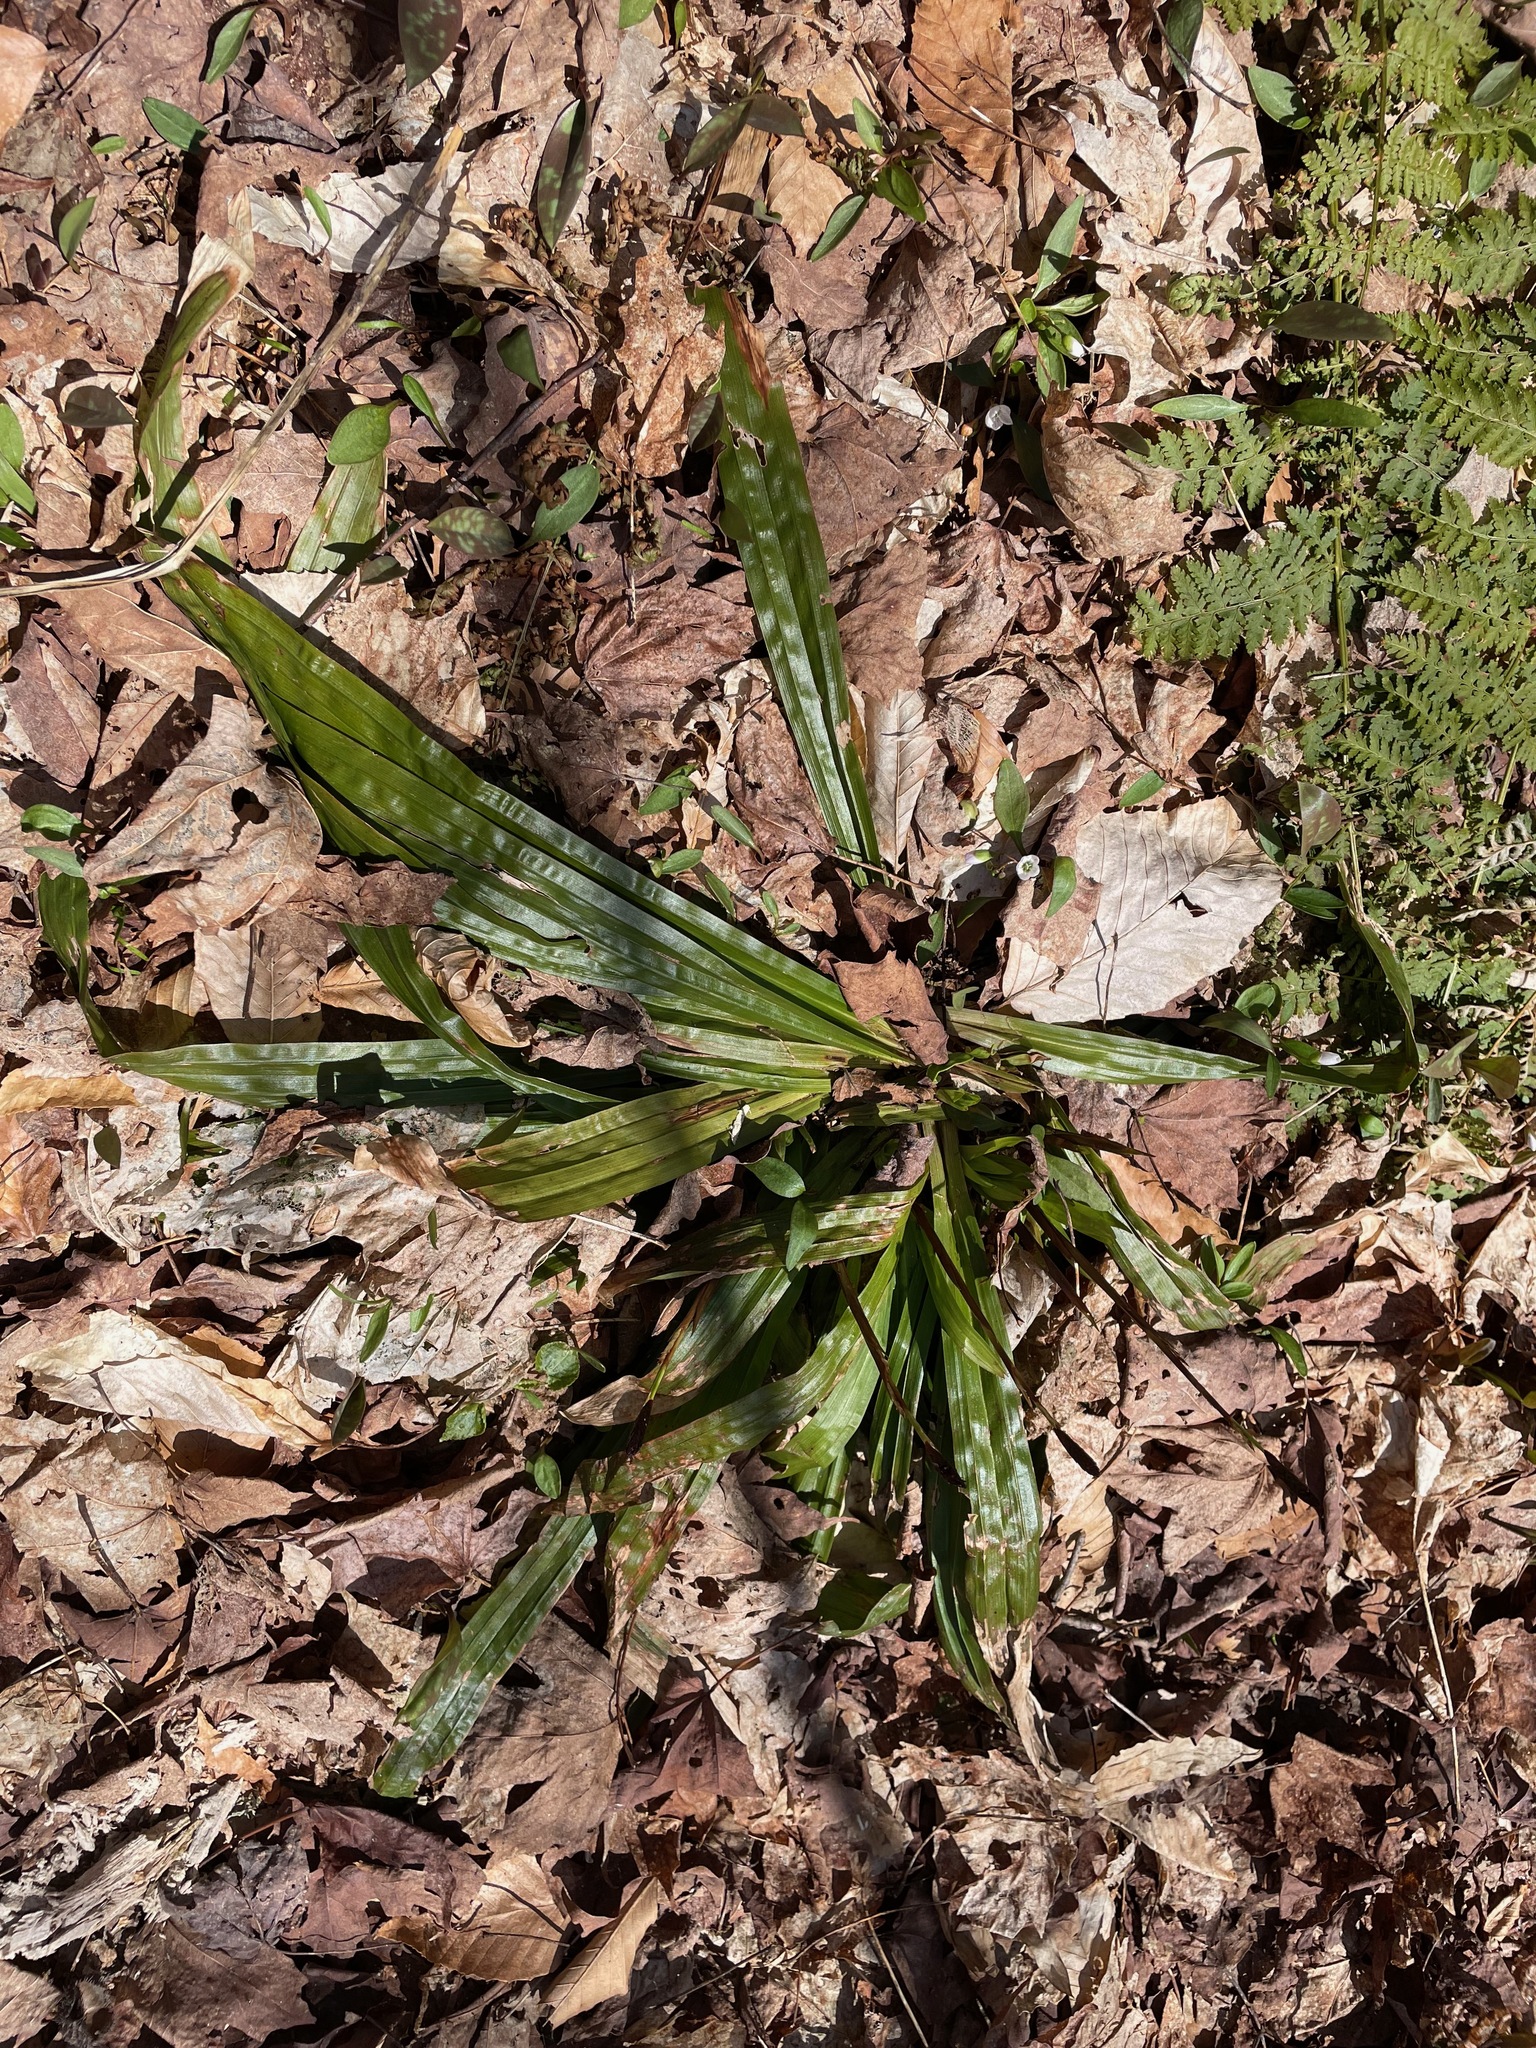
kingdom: Plantae
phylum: Tracheophyta
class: Liliopsida
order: Poales
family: Cyperaceae
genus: Carex
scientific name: Carex plantaginea
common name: Plantain-leaved sedge
